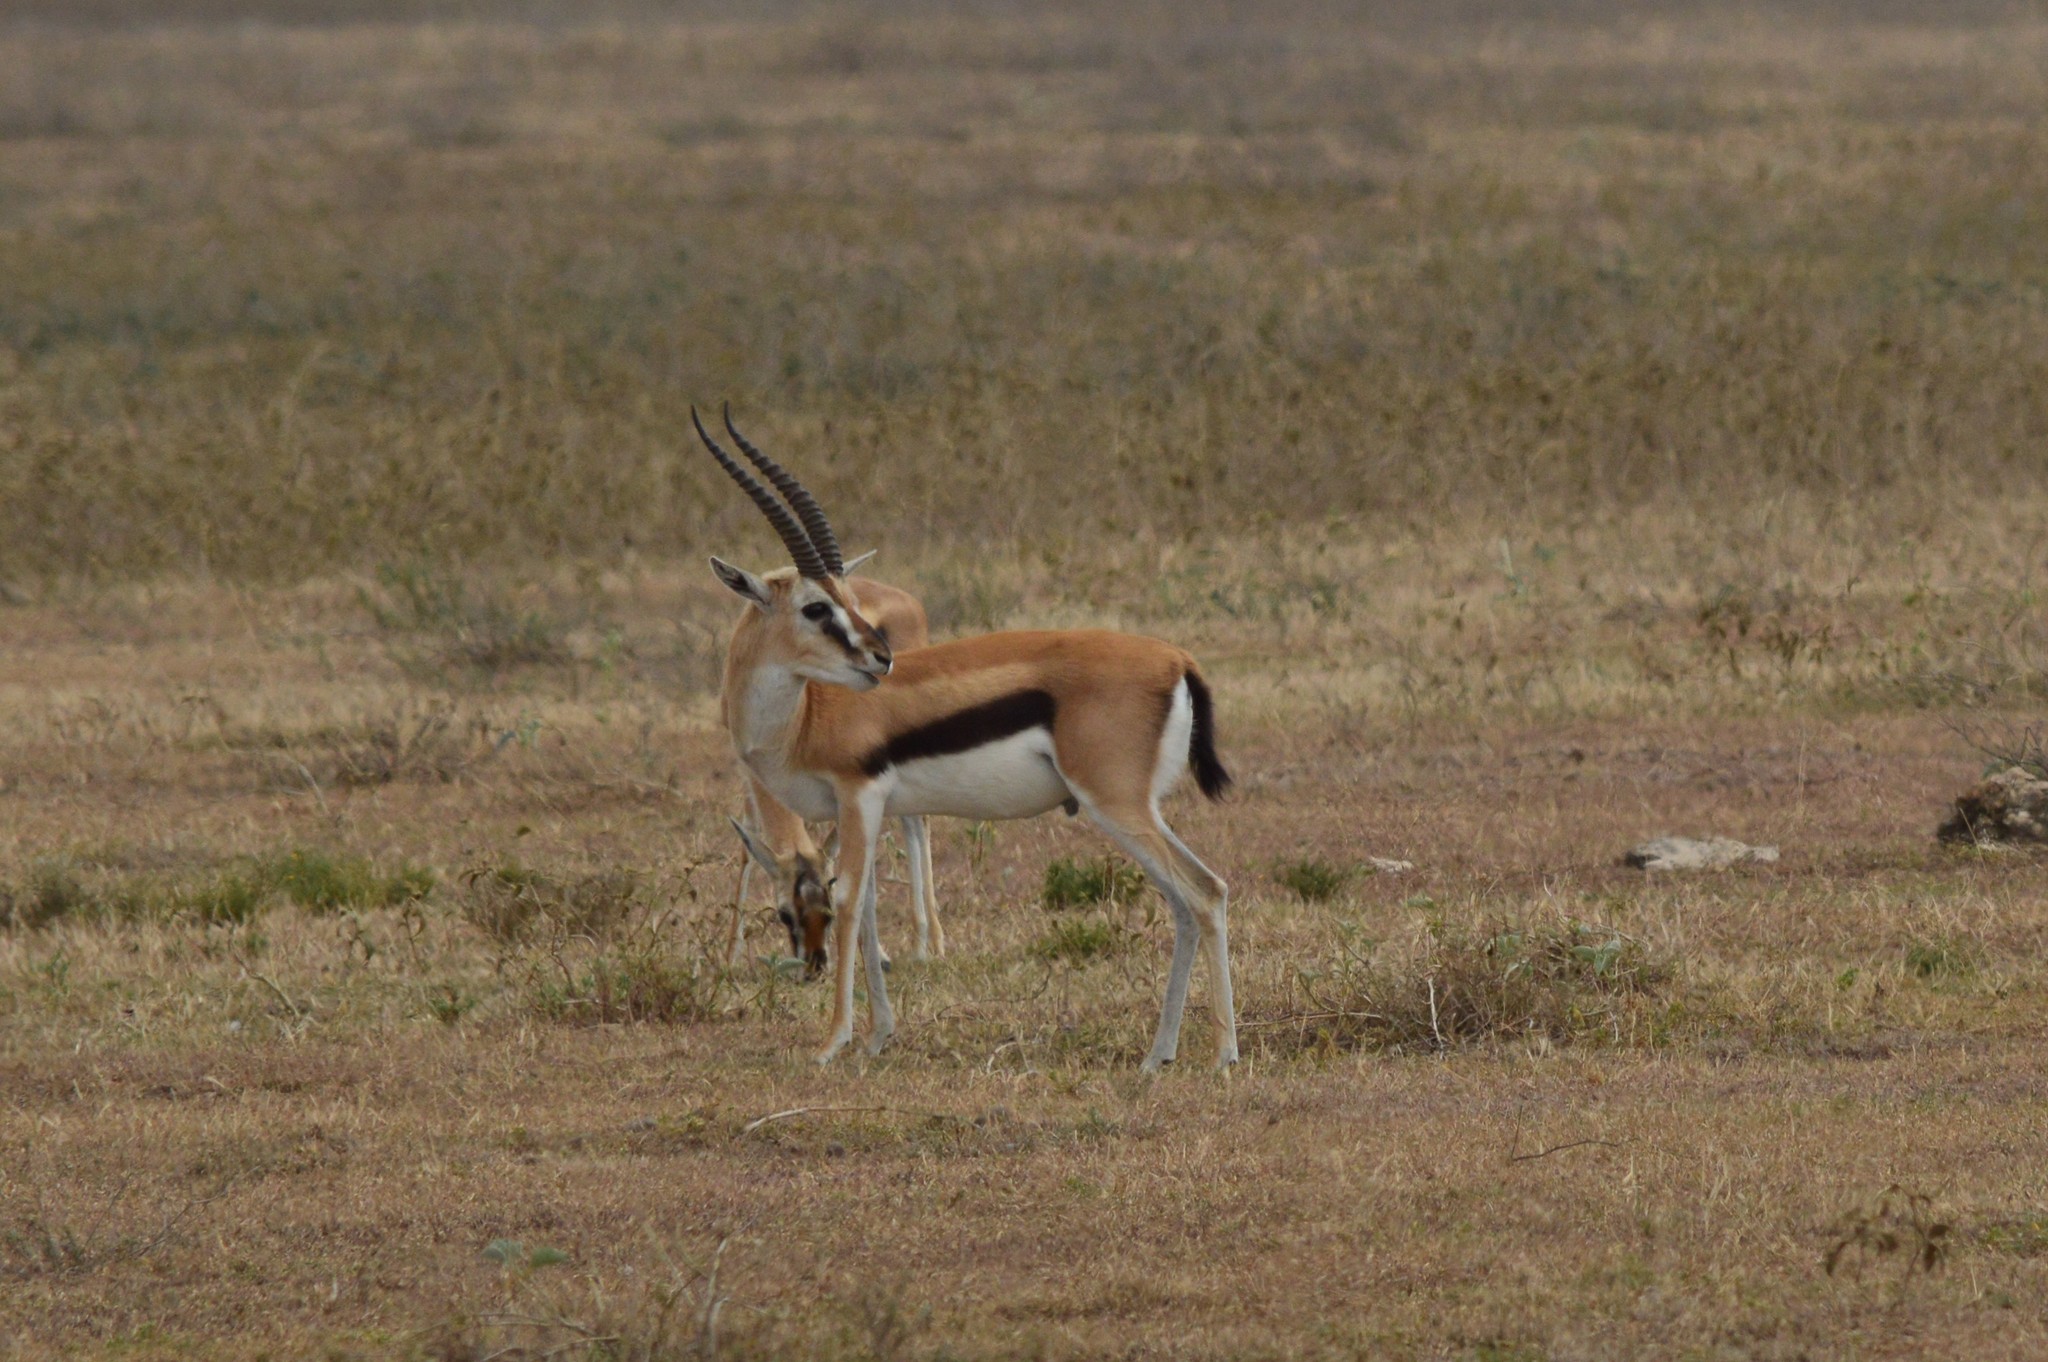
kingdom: Animalia
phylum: Chordata
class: Mammalia
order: Artiodactyla
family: Bovidae
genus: Eudorcas
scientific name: Eudorcas thomsonii
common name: Thomson's gazelle
